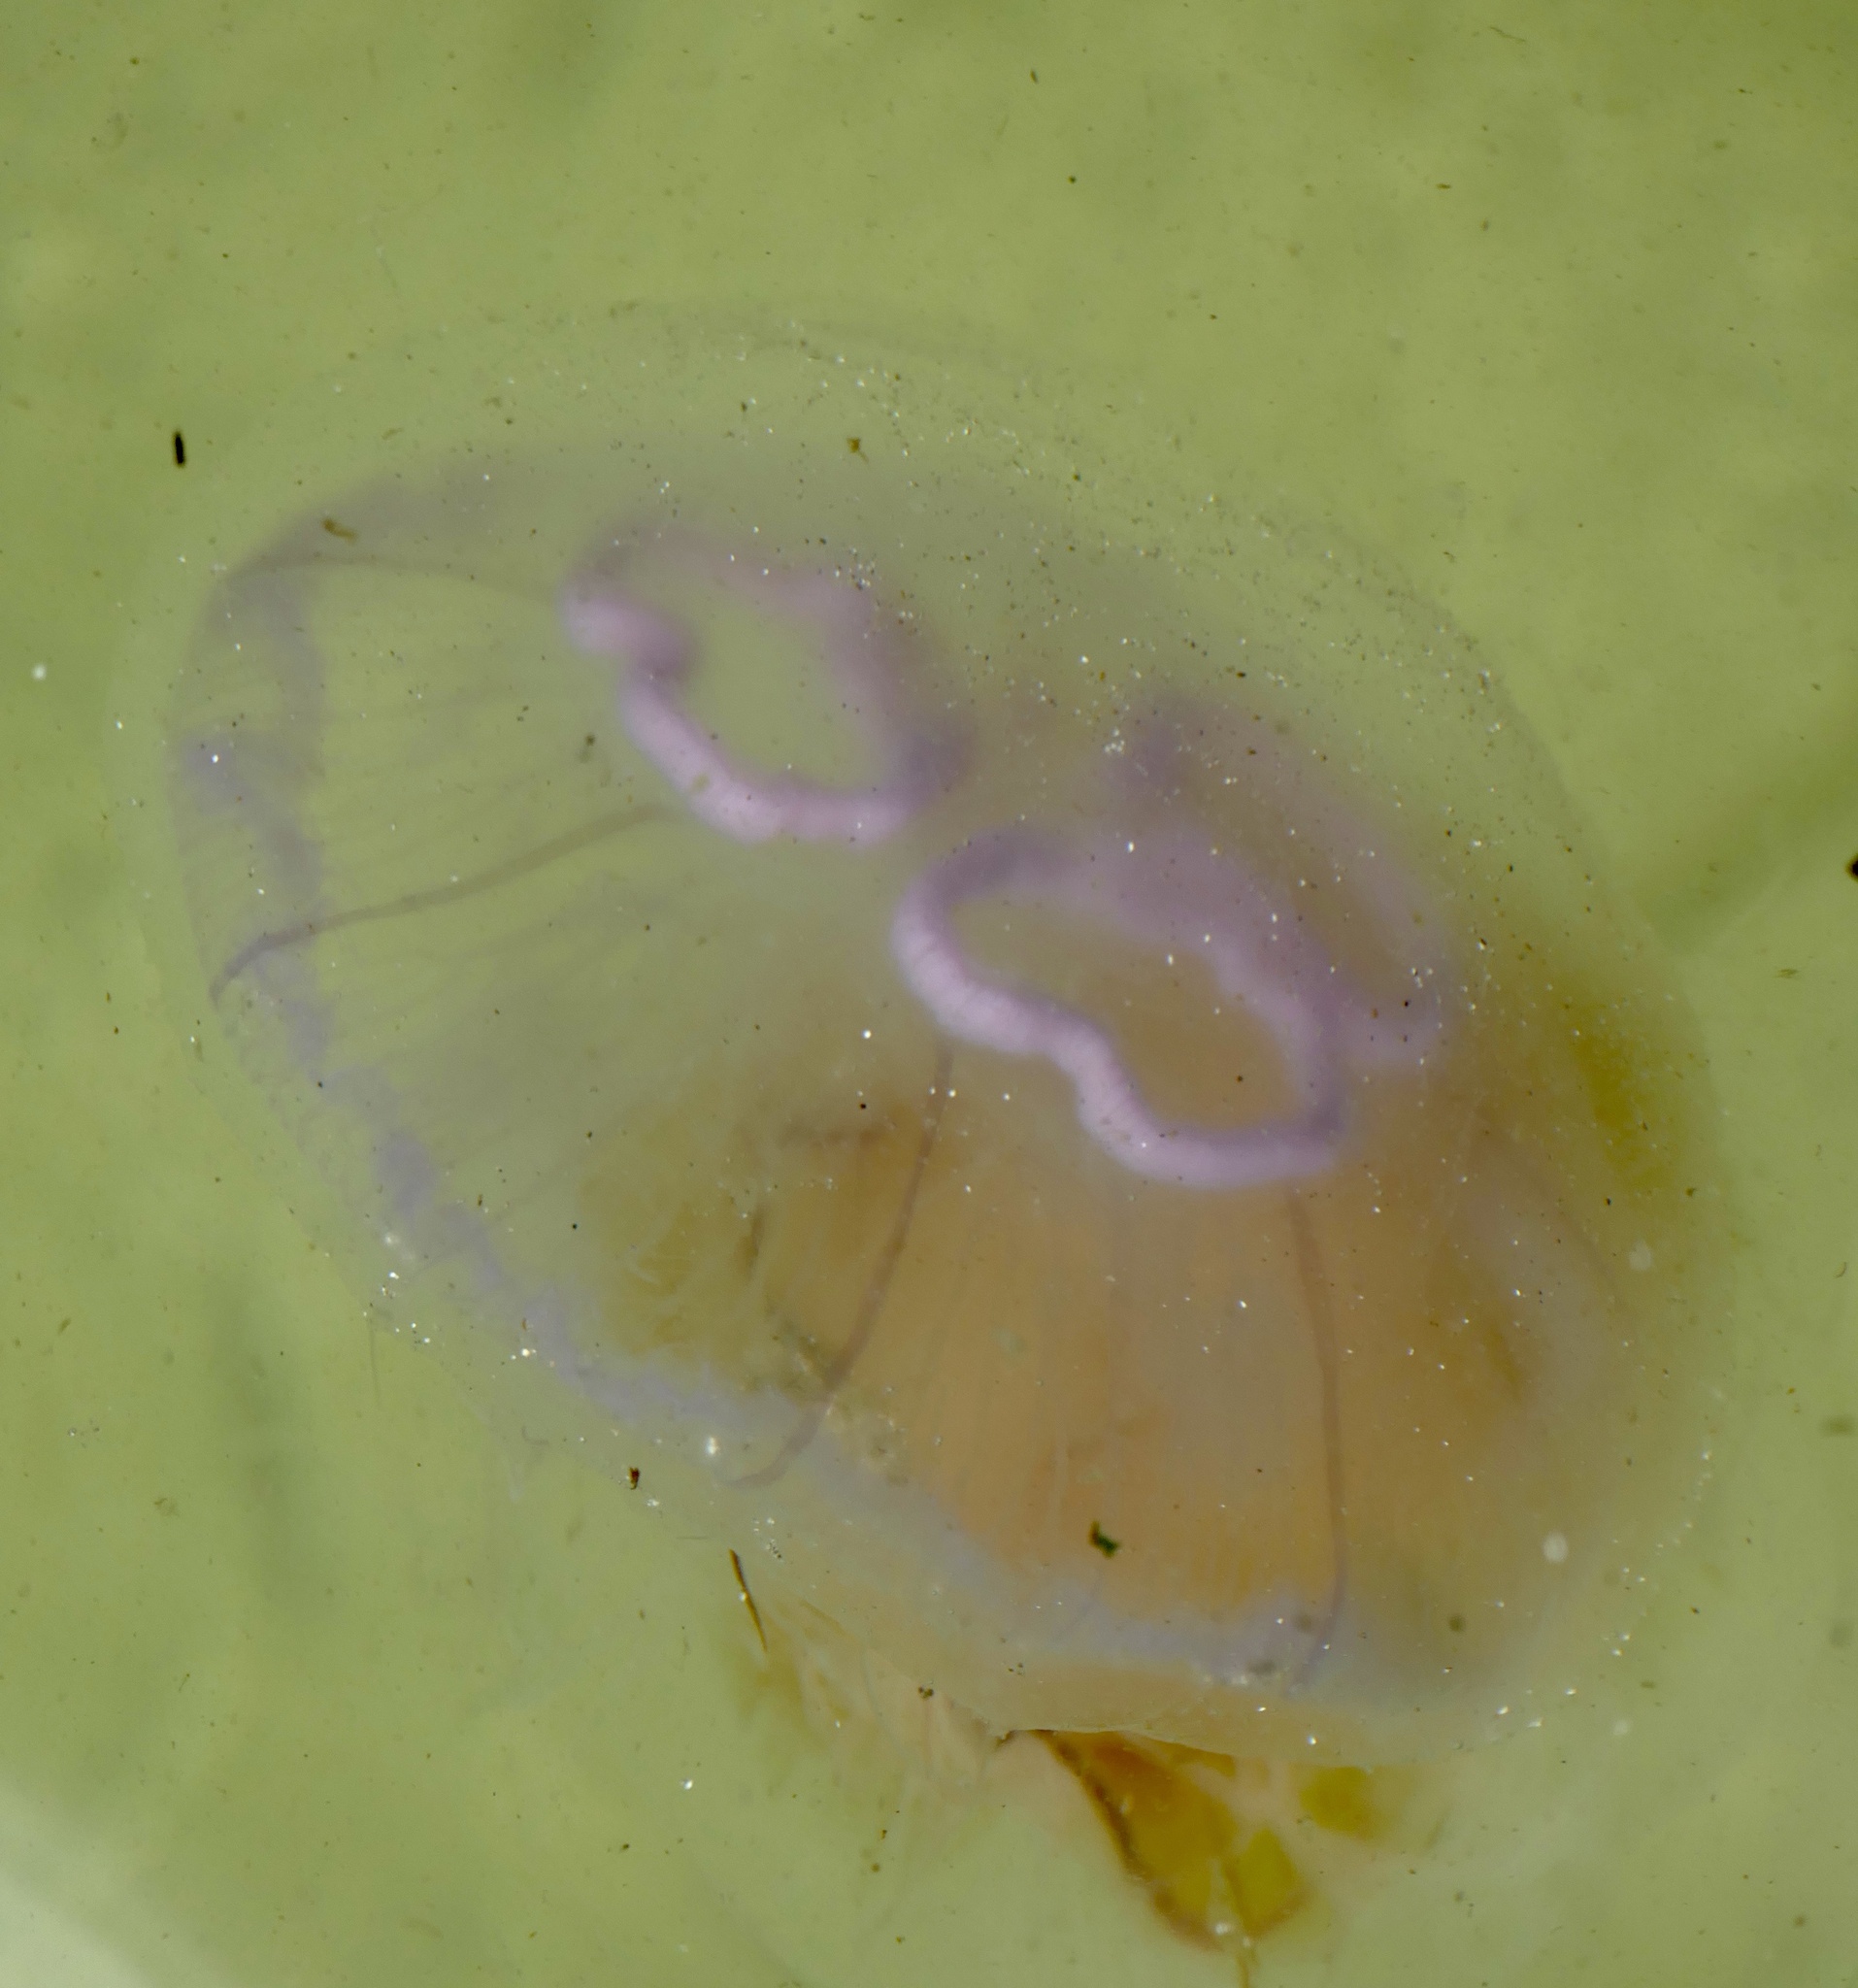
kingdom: Animalia
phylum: Cnidaria
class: Scyphozoa
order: Semaeostomeae
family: Ulmaridae
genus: Aurelia
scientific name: Aurelia aurita
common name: Moon jellyfish
